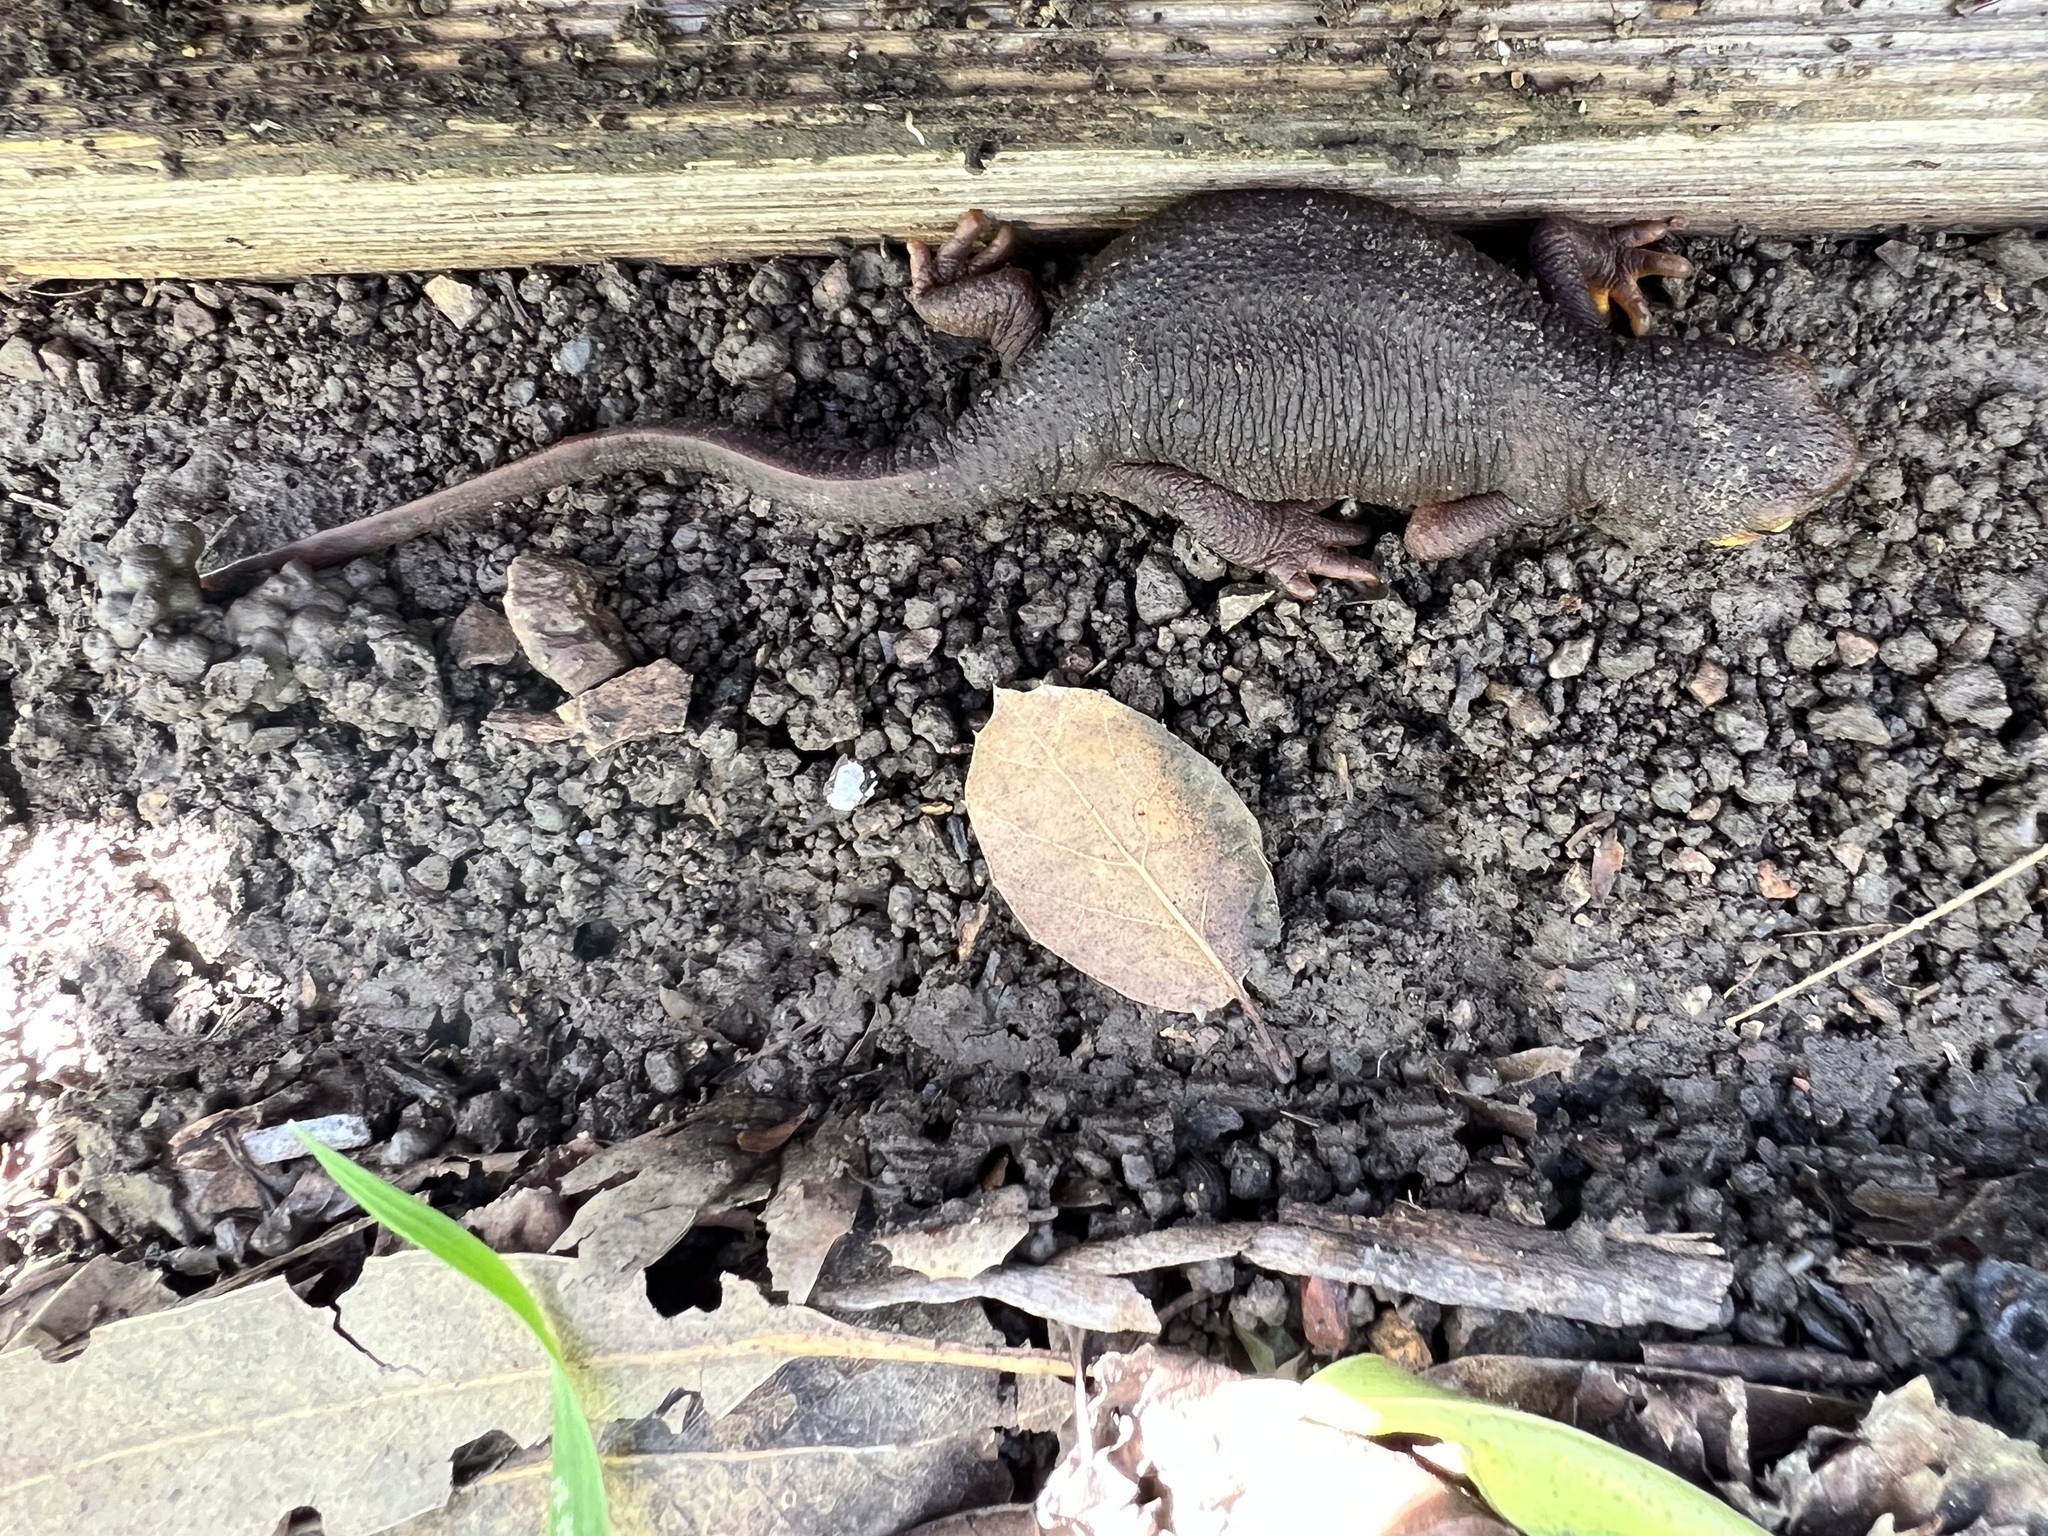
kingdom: Animalia
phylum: Chordata
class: Amphibia
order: Caudata
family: Salamandridae
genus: Taricha
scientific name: Taricha torosa
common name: California newt
